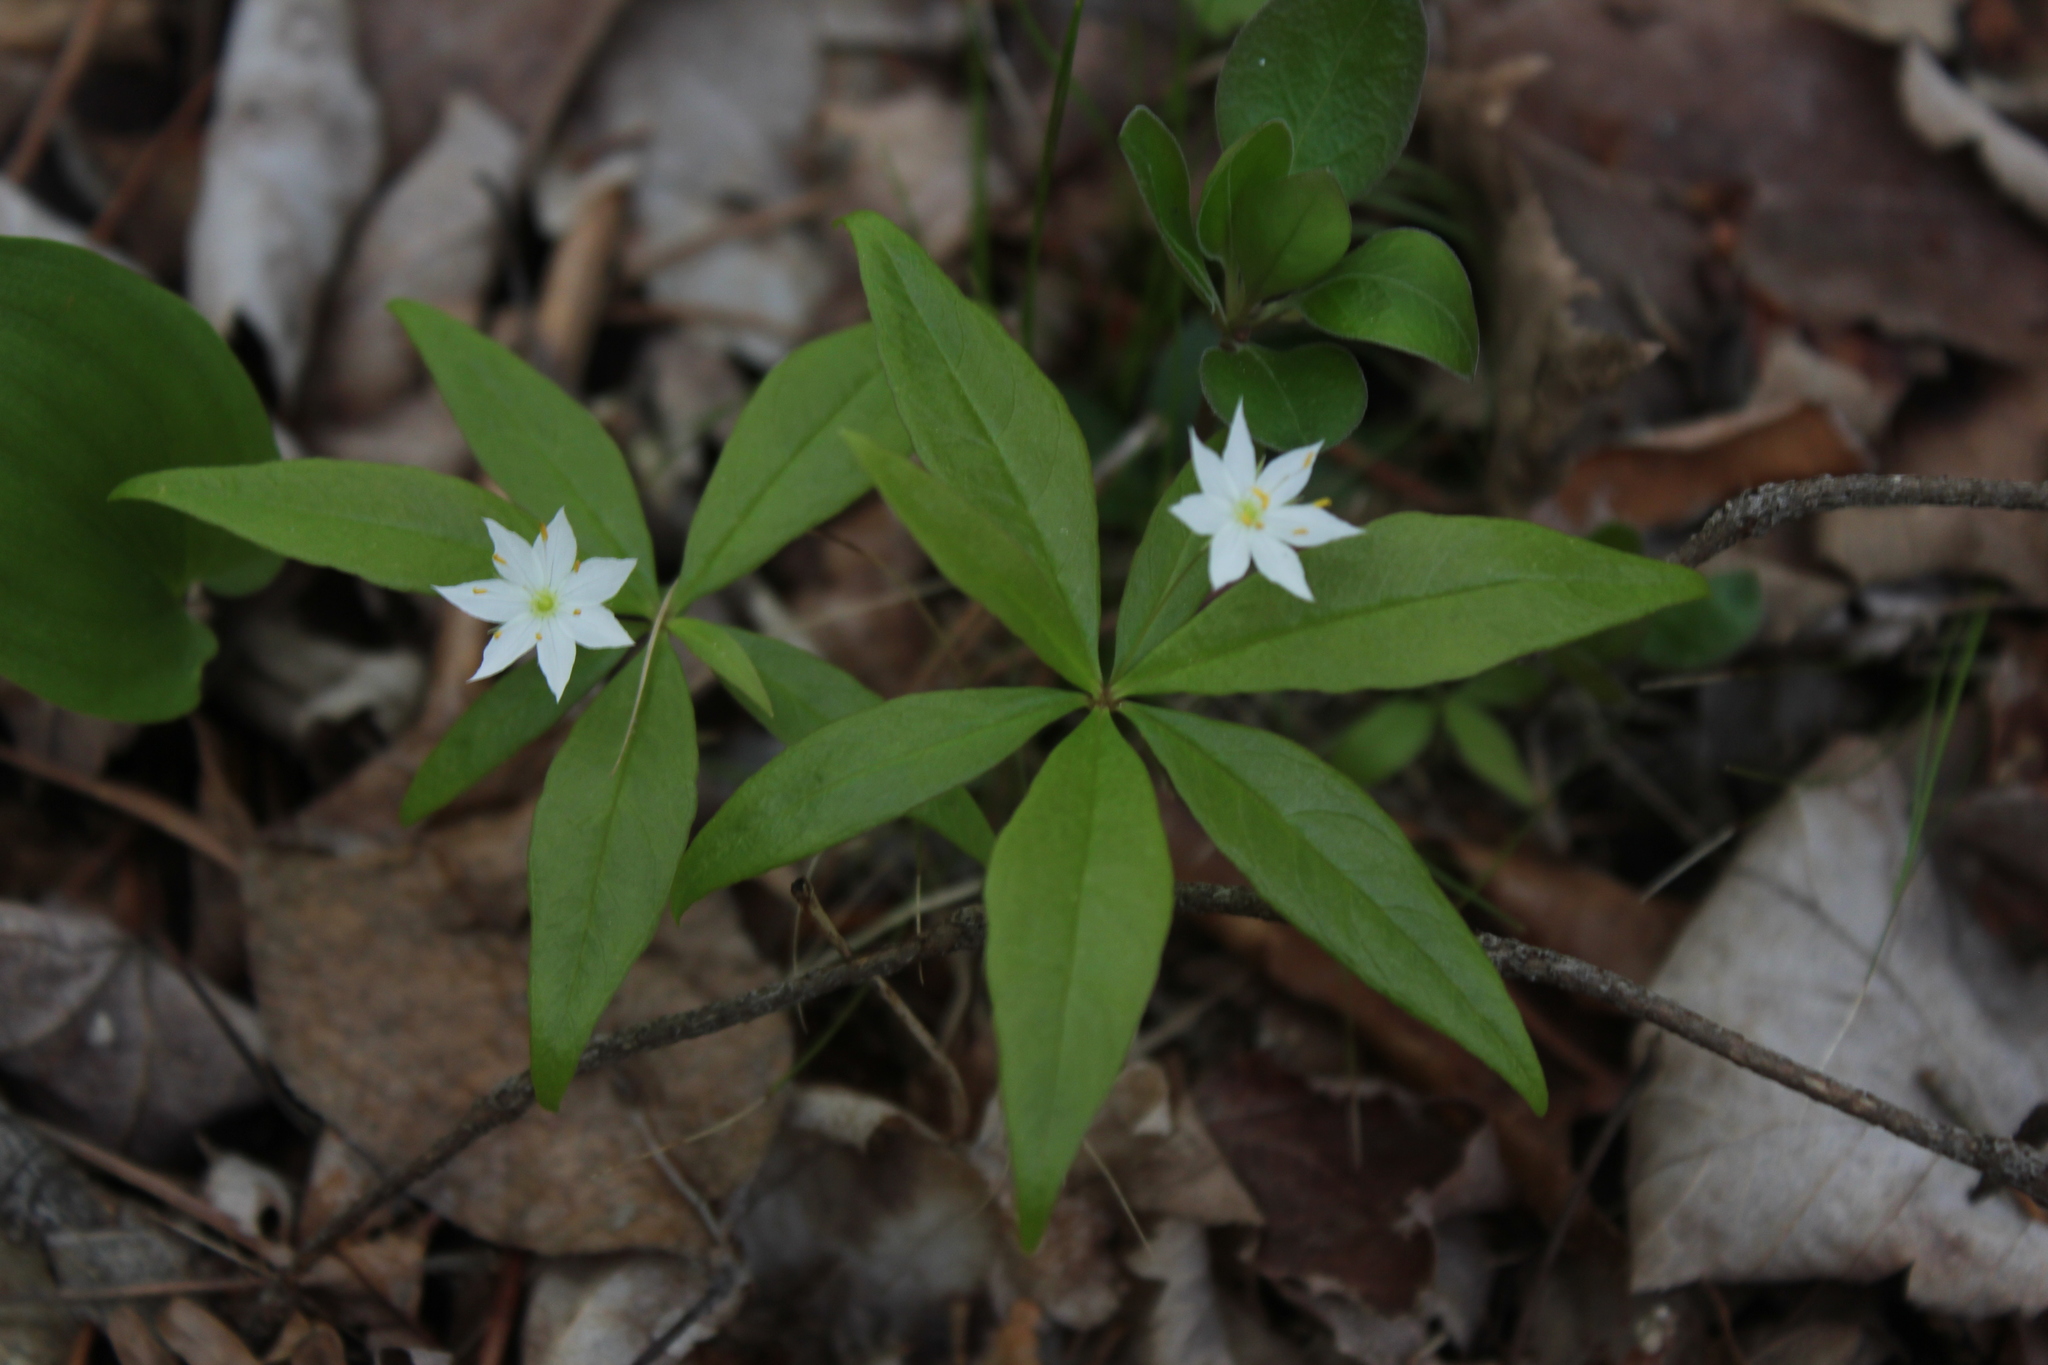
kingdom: Plantae
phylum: Tracheophyta
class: Magnoliopsida
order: Ericales
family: Primulaceae
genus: Lysimachia
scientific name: Lysimachia borealis
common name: American starflower
